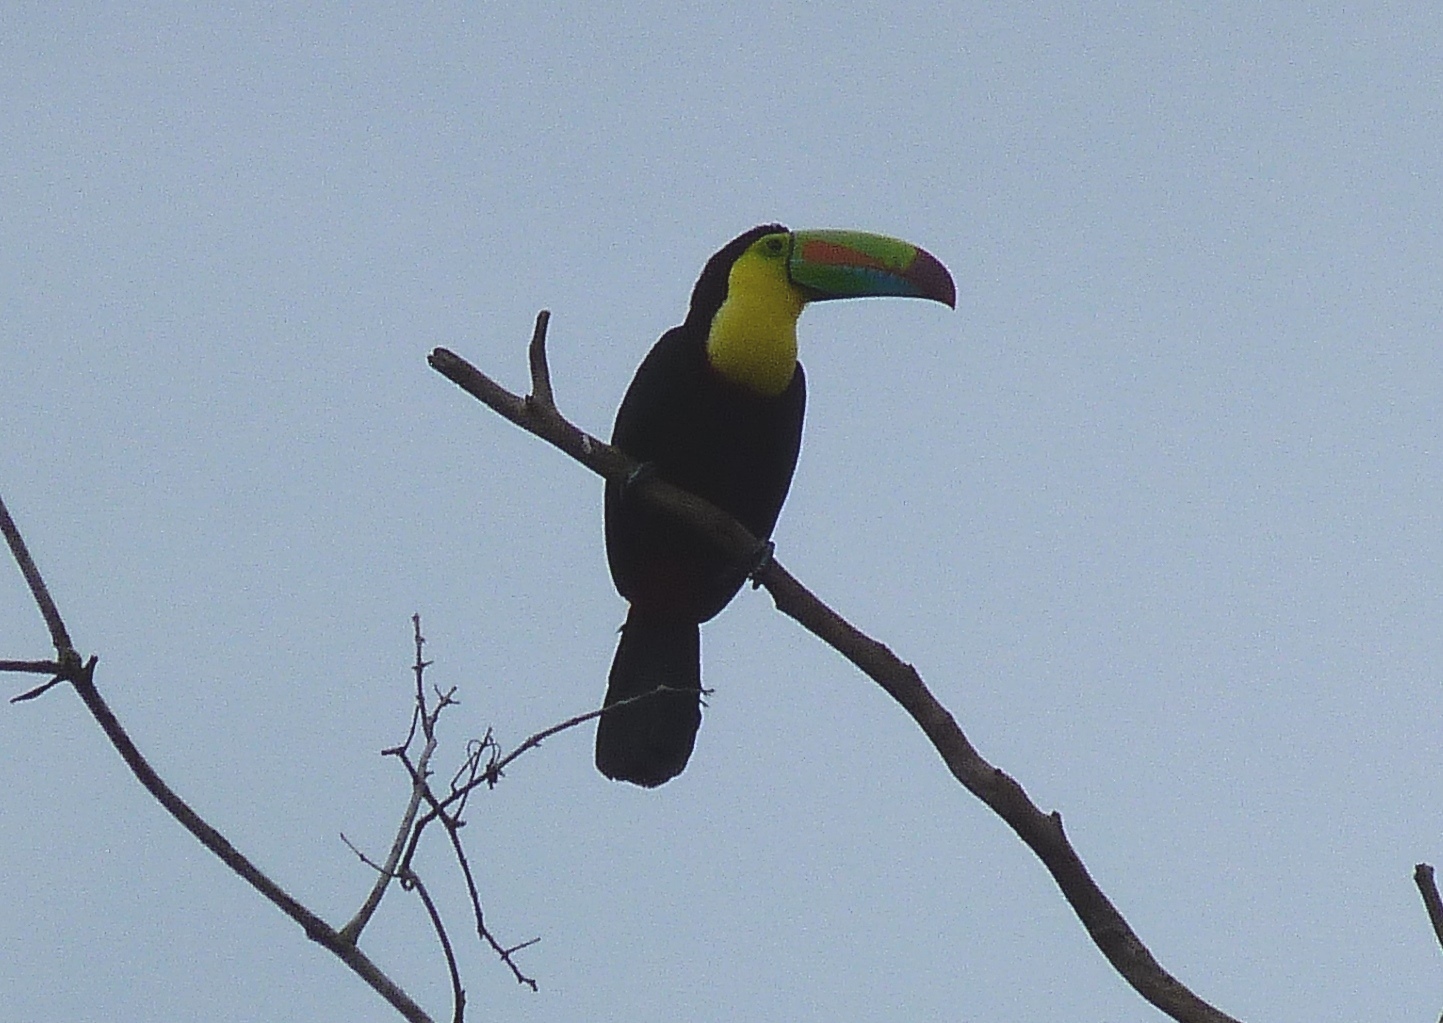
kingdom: Animalia
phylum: Chordata
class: Aves
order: Piciformes
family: Ramphastidae
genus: Ramphastos
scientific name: Ramphastos sulfuratus
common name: Keel-billed toucan
